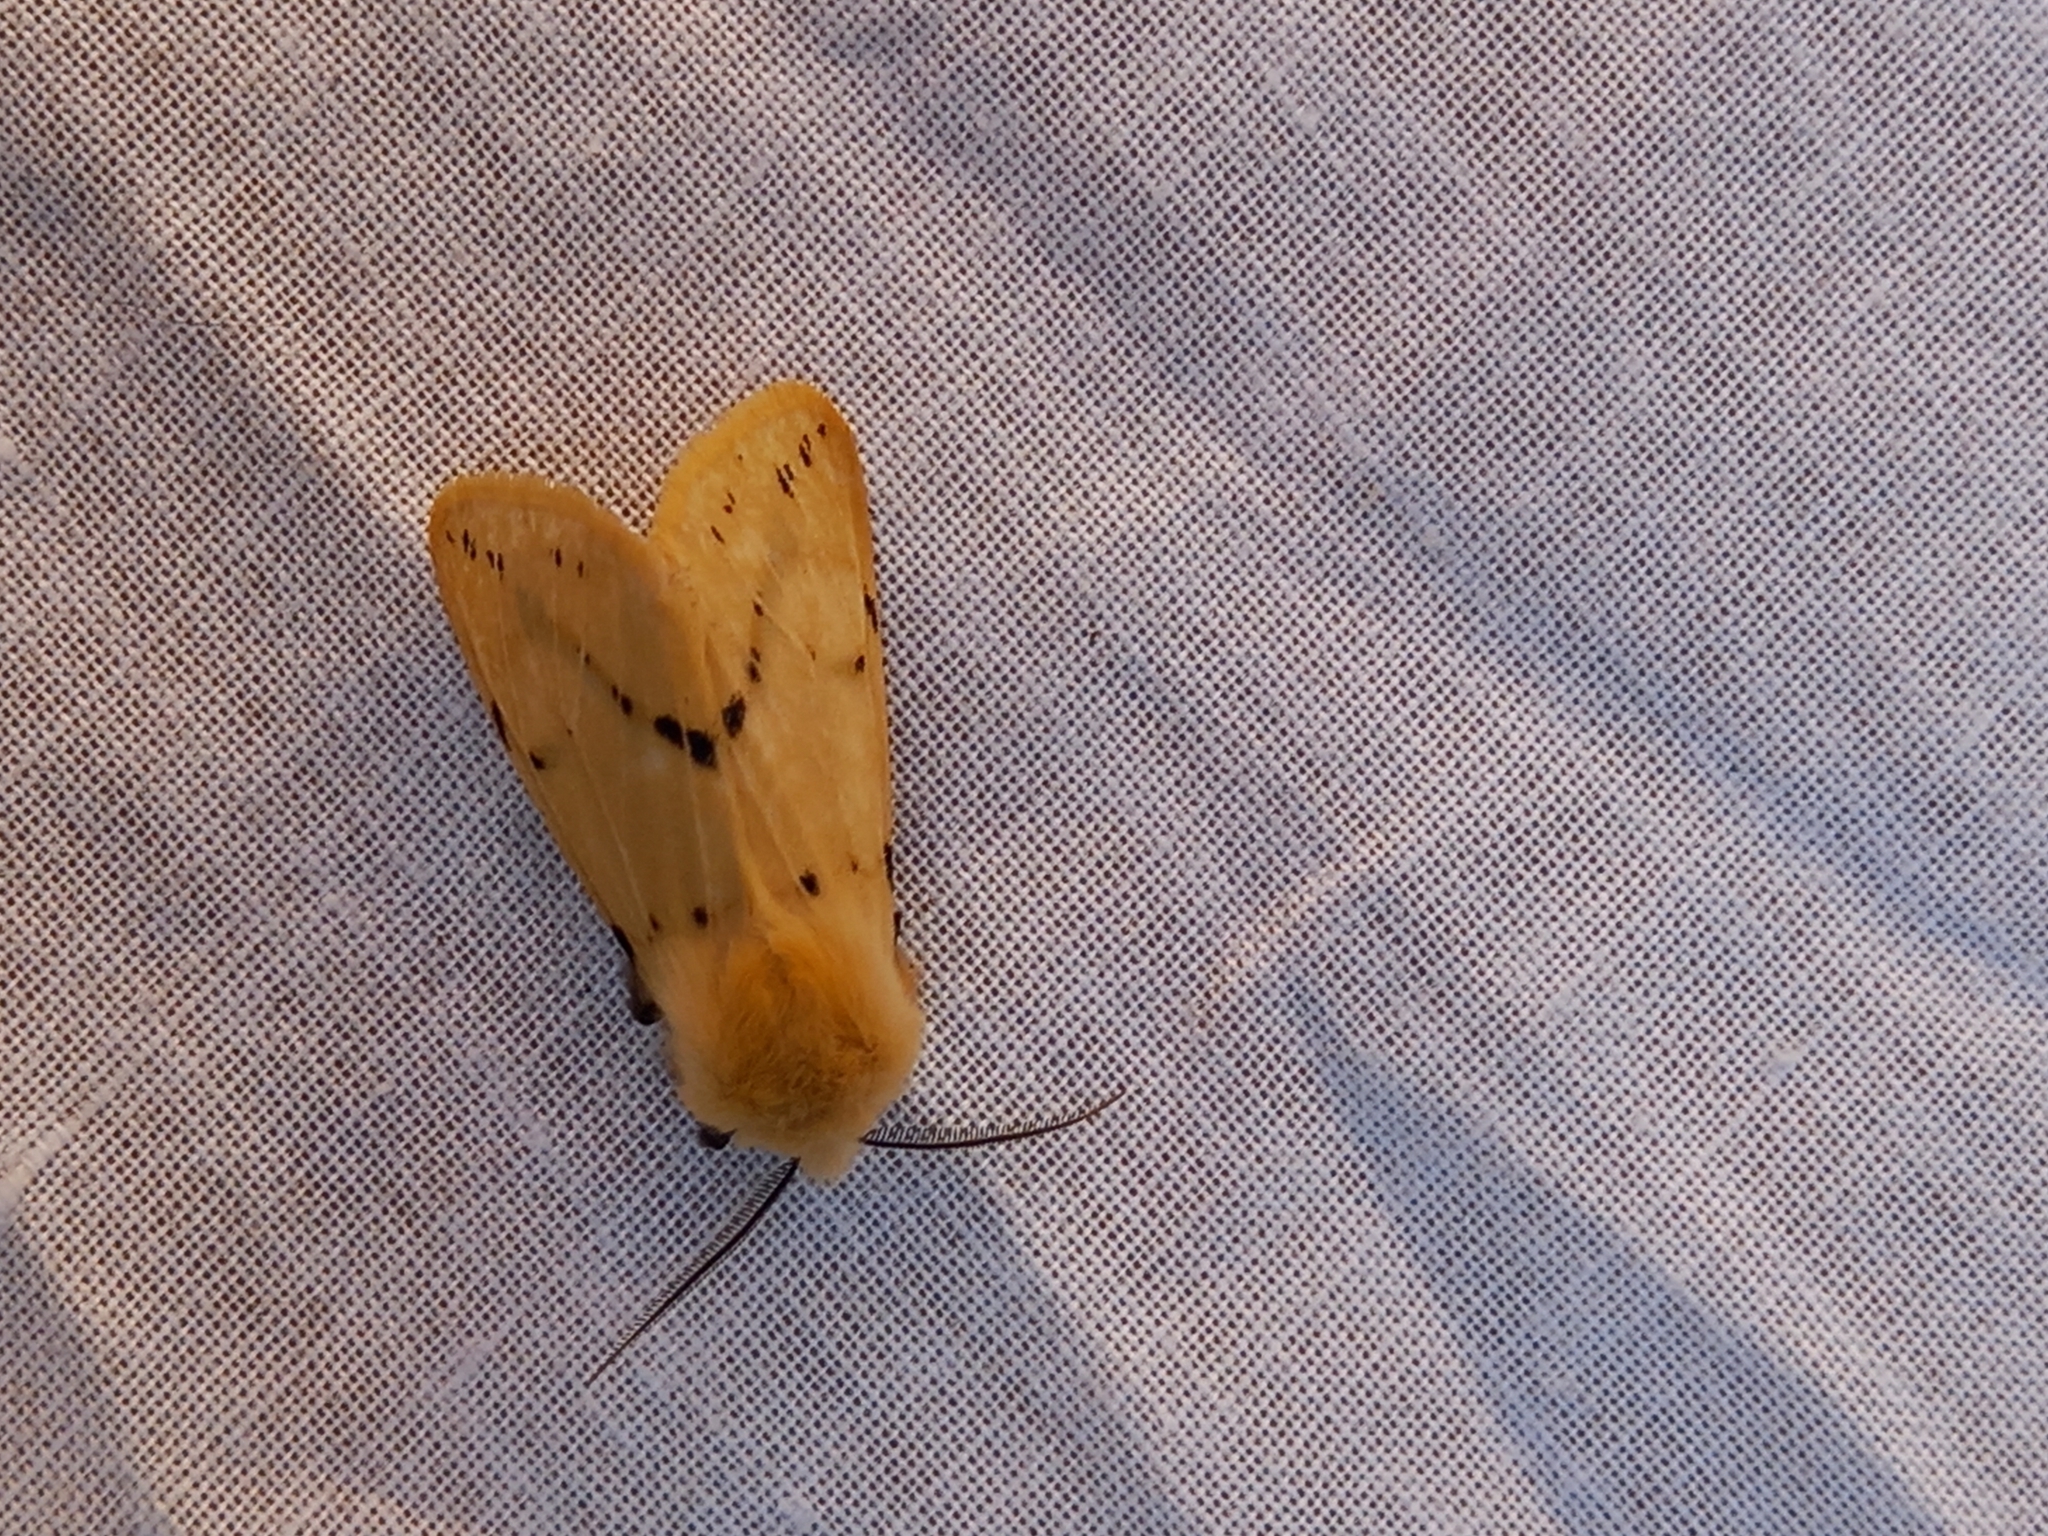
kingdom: Animalia
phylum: Arthropoda
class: Insecta
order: Lepidoptera
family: Erebidae
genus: Spilarctia
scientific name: Spilarctia lutea
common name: Buff ermine
